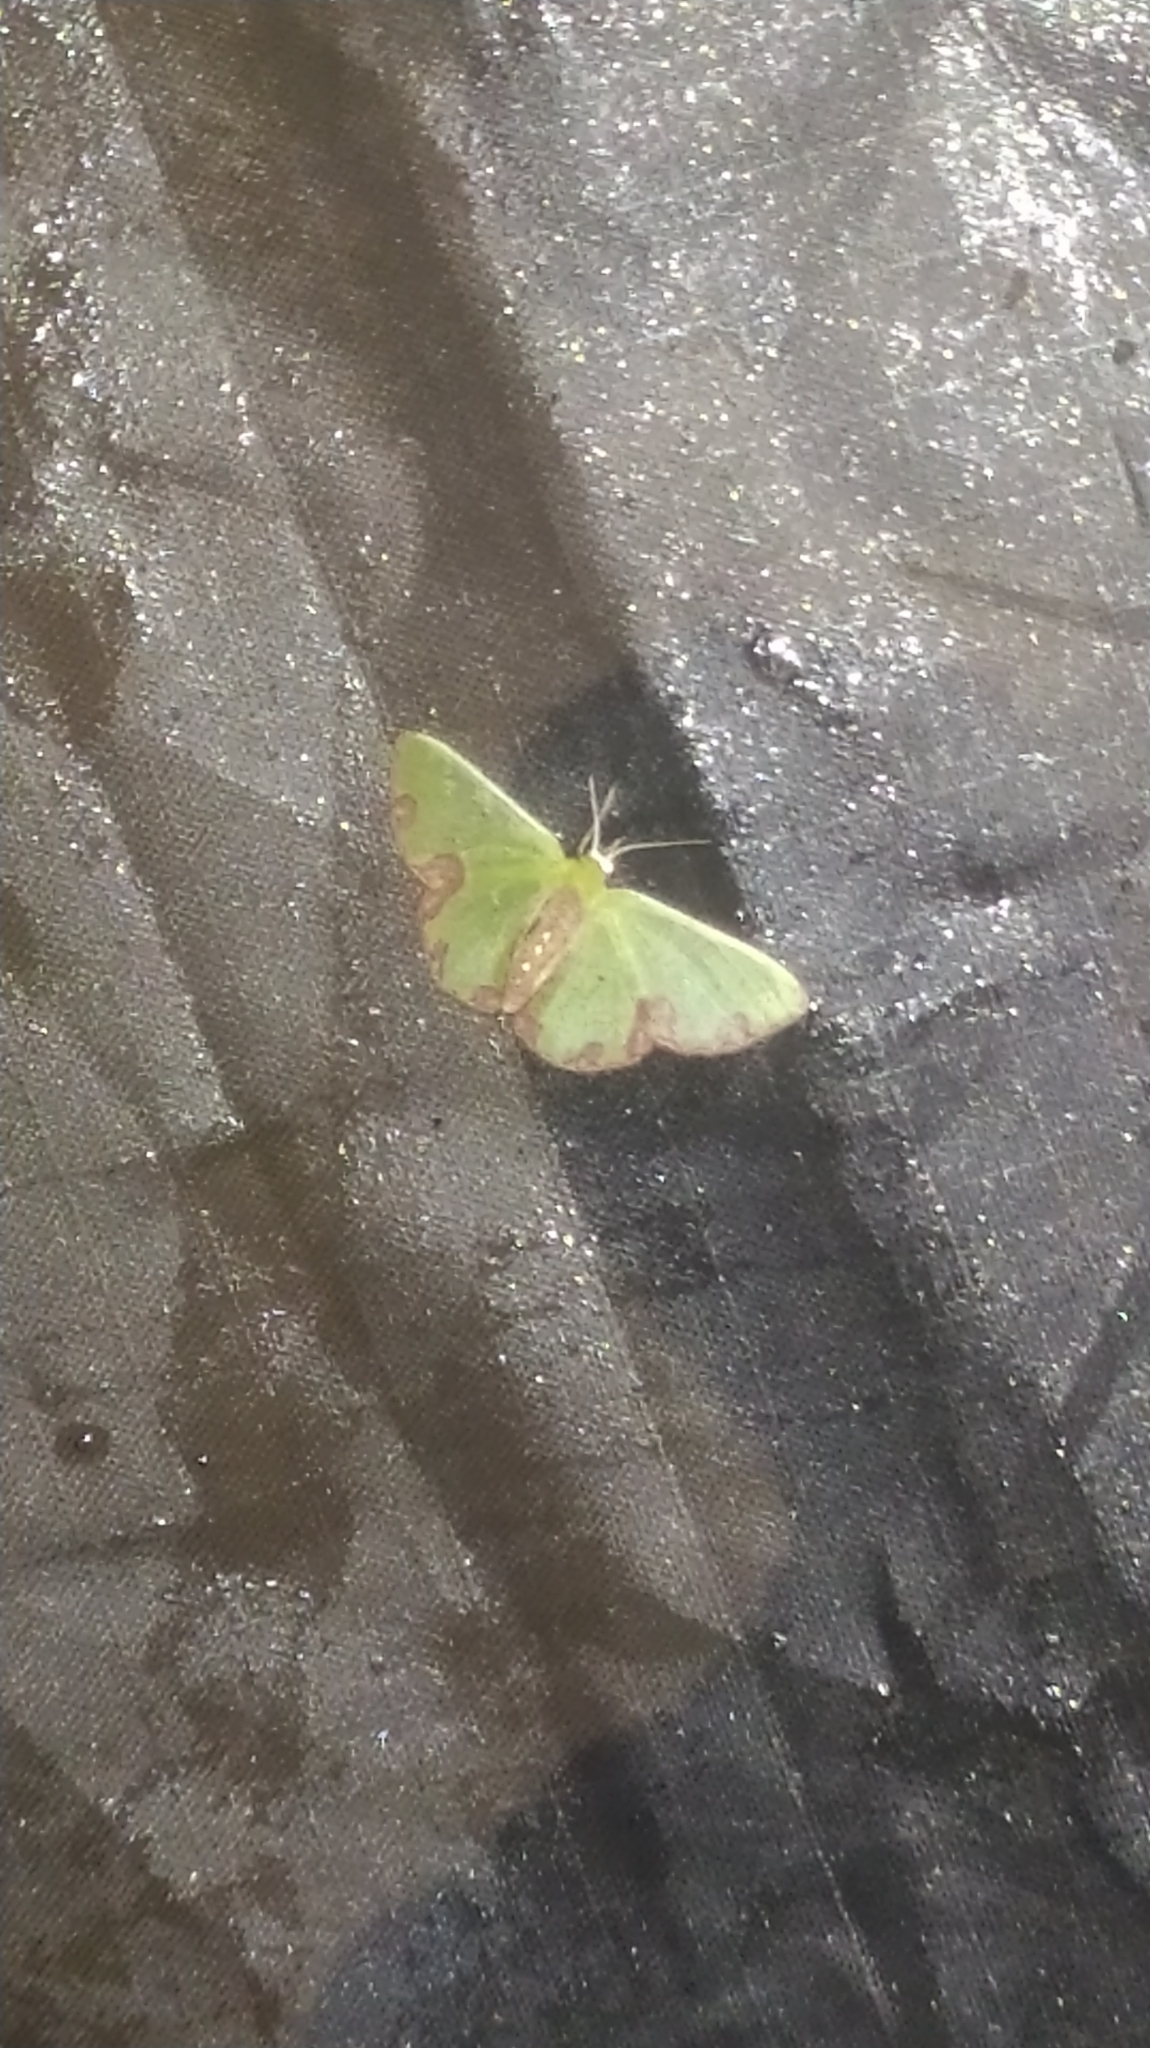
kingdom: Animalia
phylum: Arthropoda
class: Insecta
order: Lepidoptera
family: Geometridae
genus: Synchlora
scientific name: Synchlora gerularia
